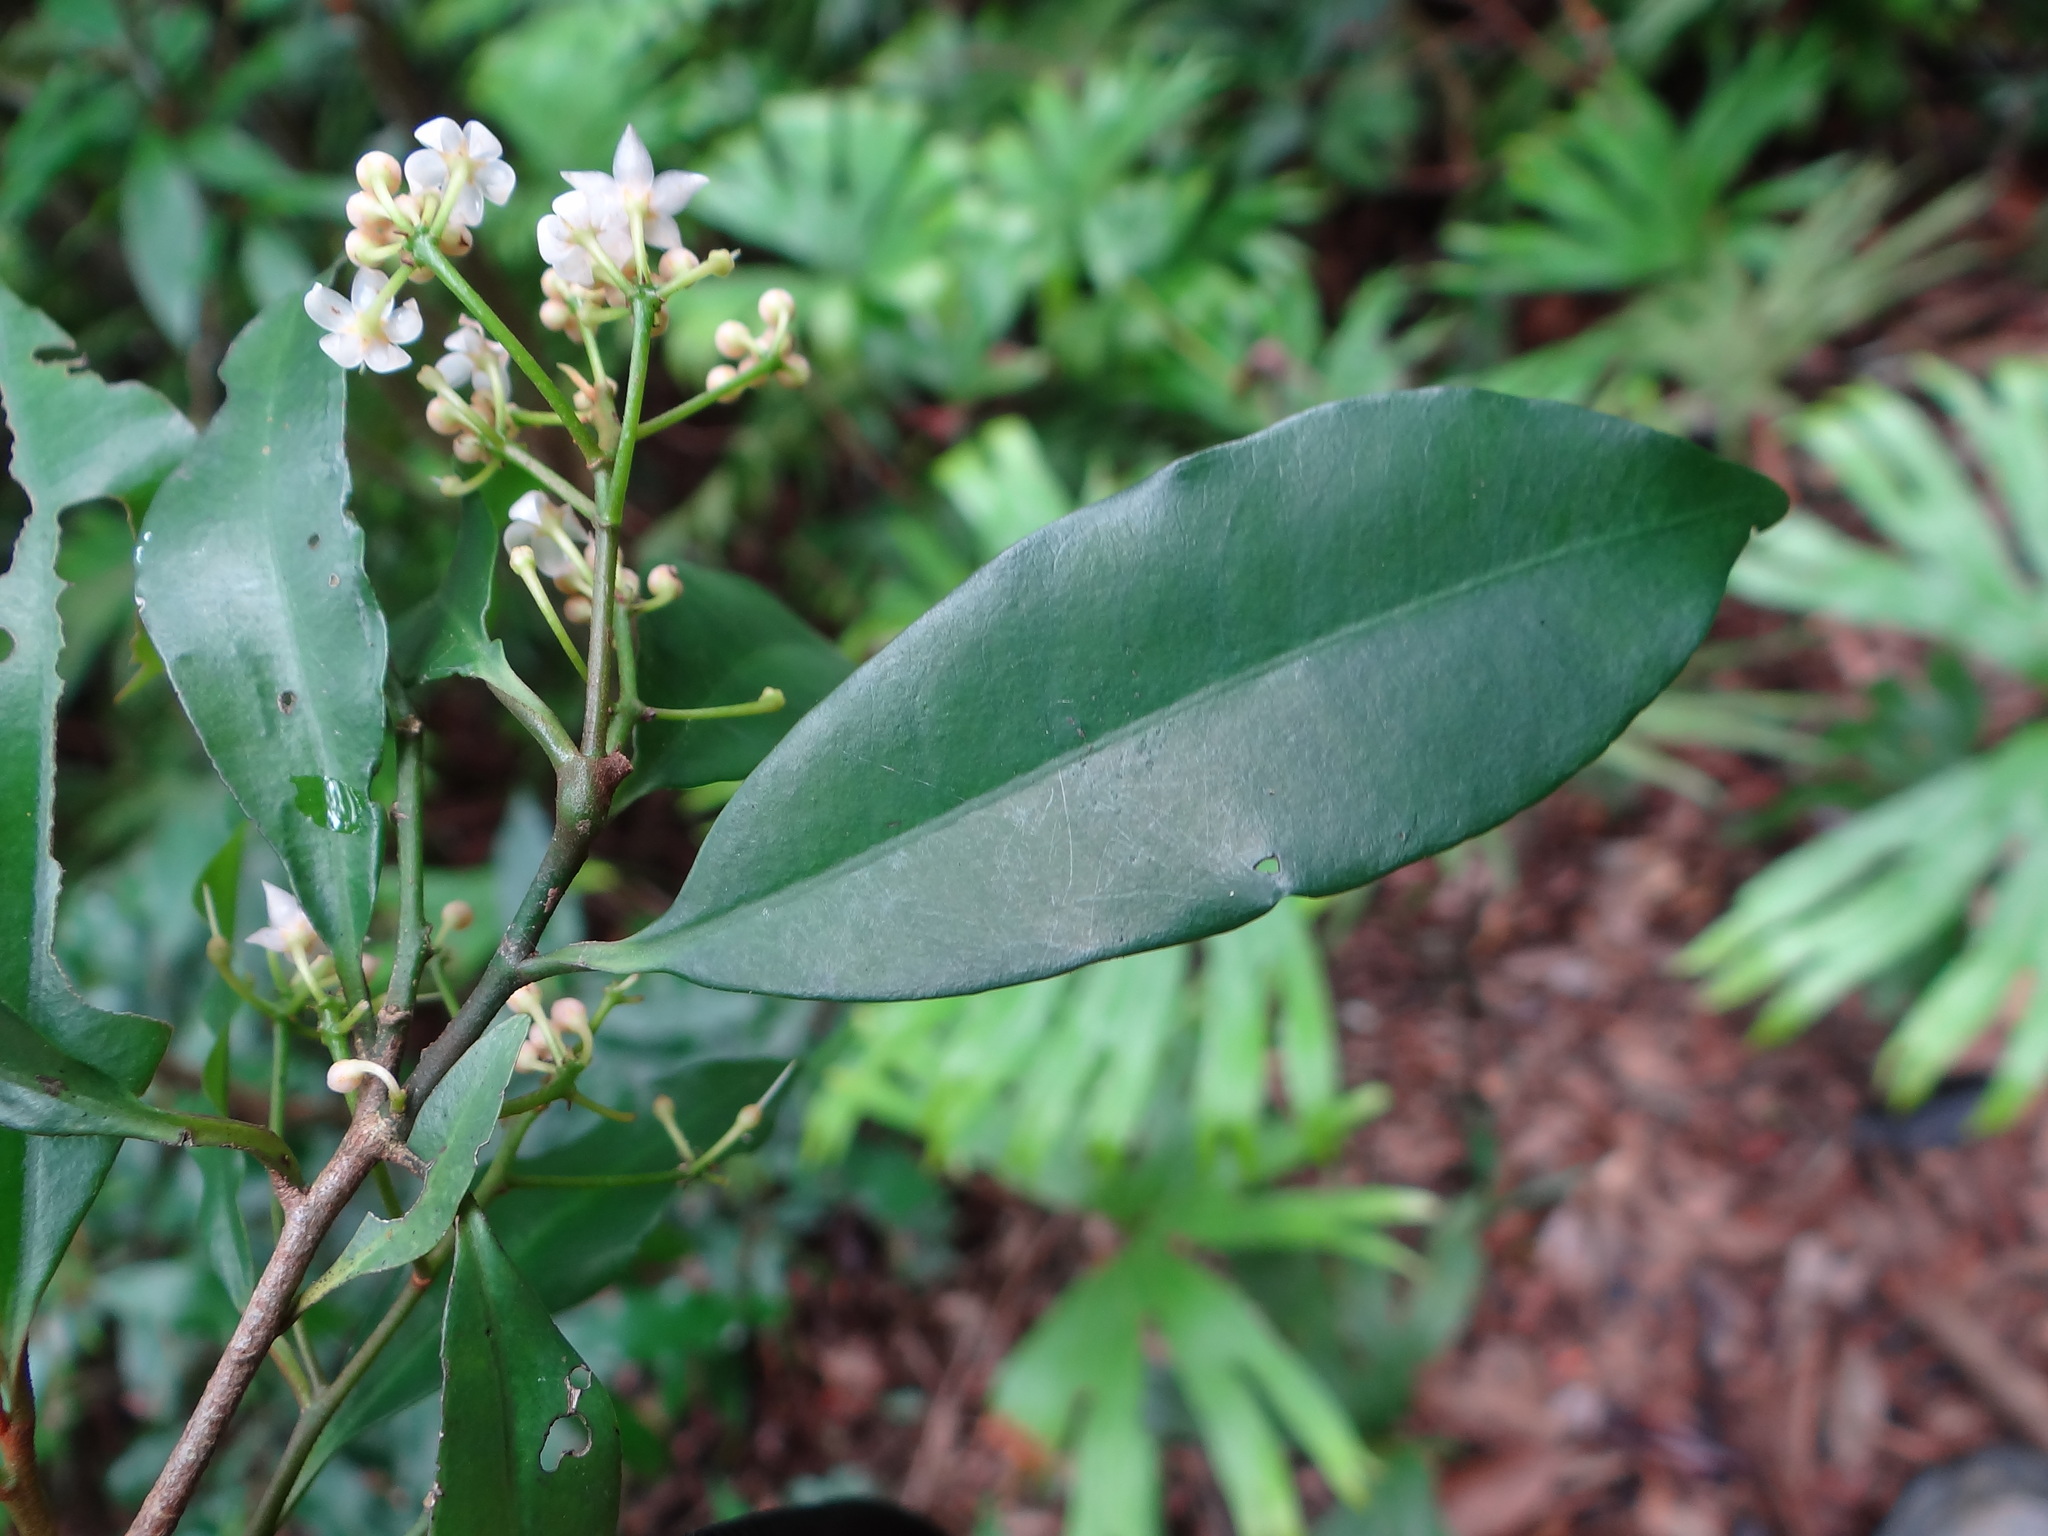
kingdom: Plantae
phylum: Tracheophyta
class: Magnoliopsida
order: Ericales
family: Primulaceae
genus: Ardisia
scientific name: Ardisia quinquegona
